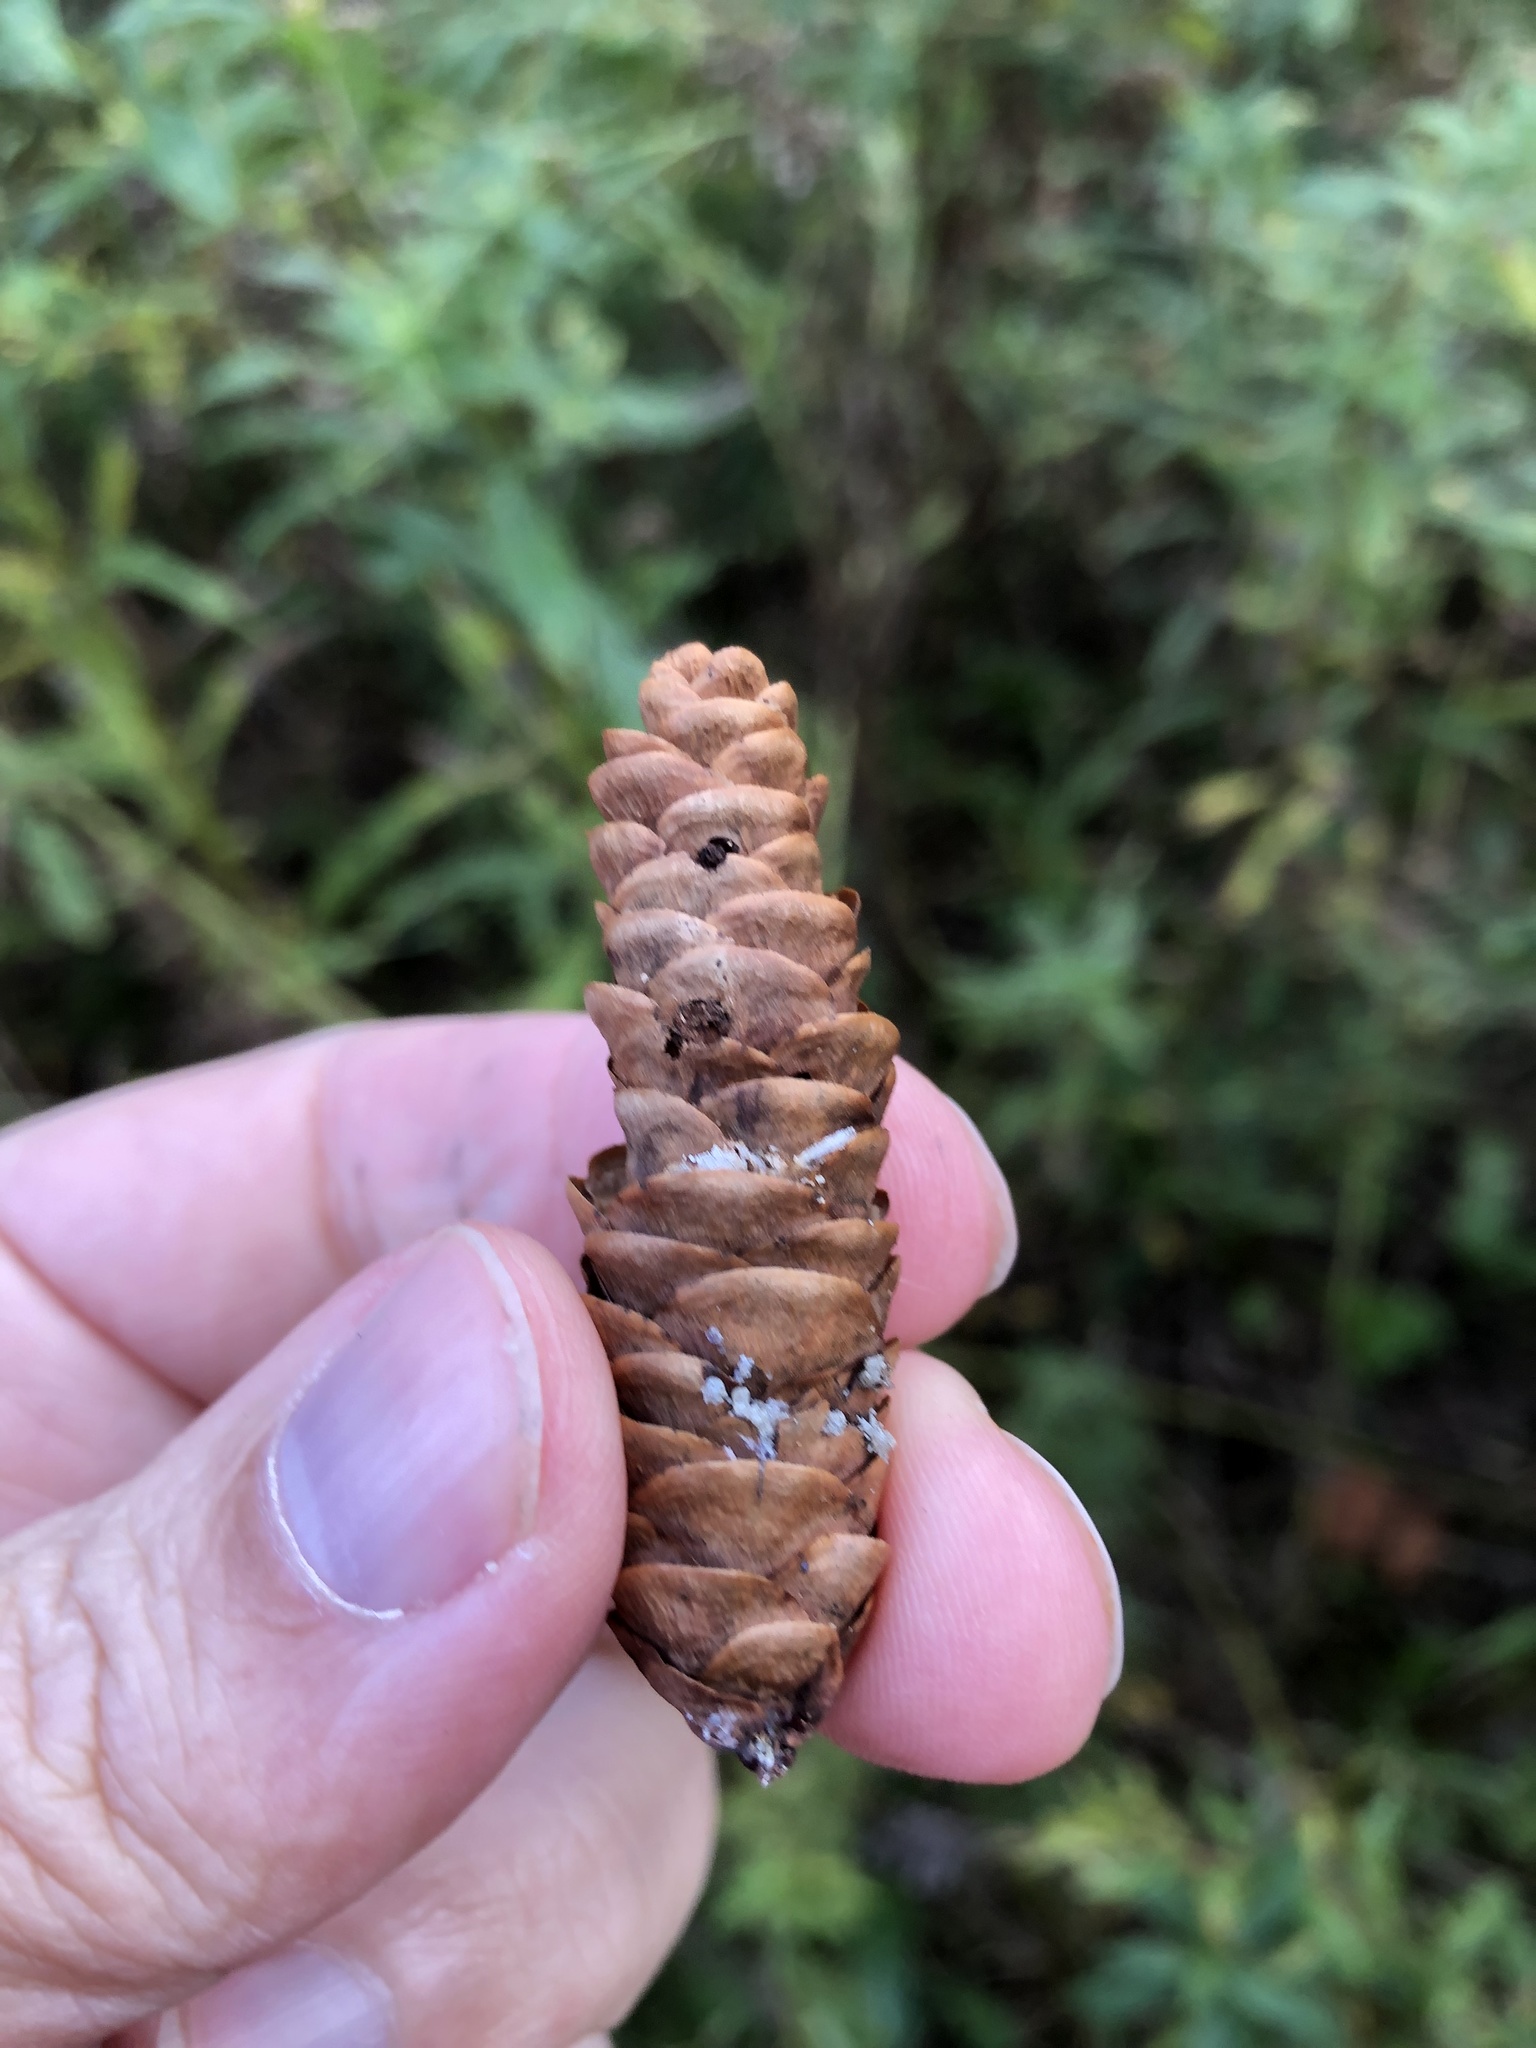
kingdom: Plantae
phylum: Tracheophyta
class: Pinopsida
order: Pinales
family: Pinaceae
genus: Picea
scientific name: Picea glauca
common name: White spruce
